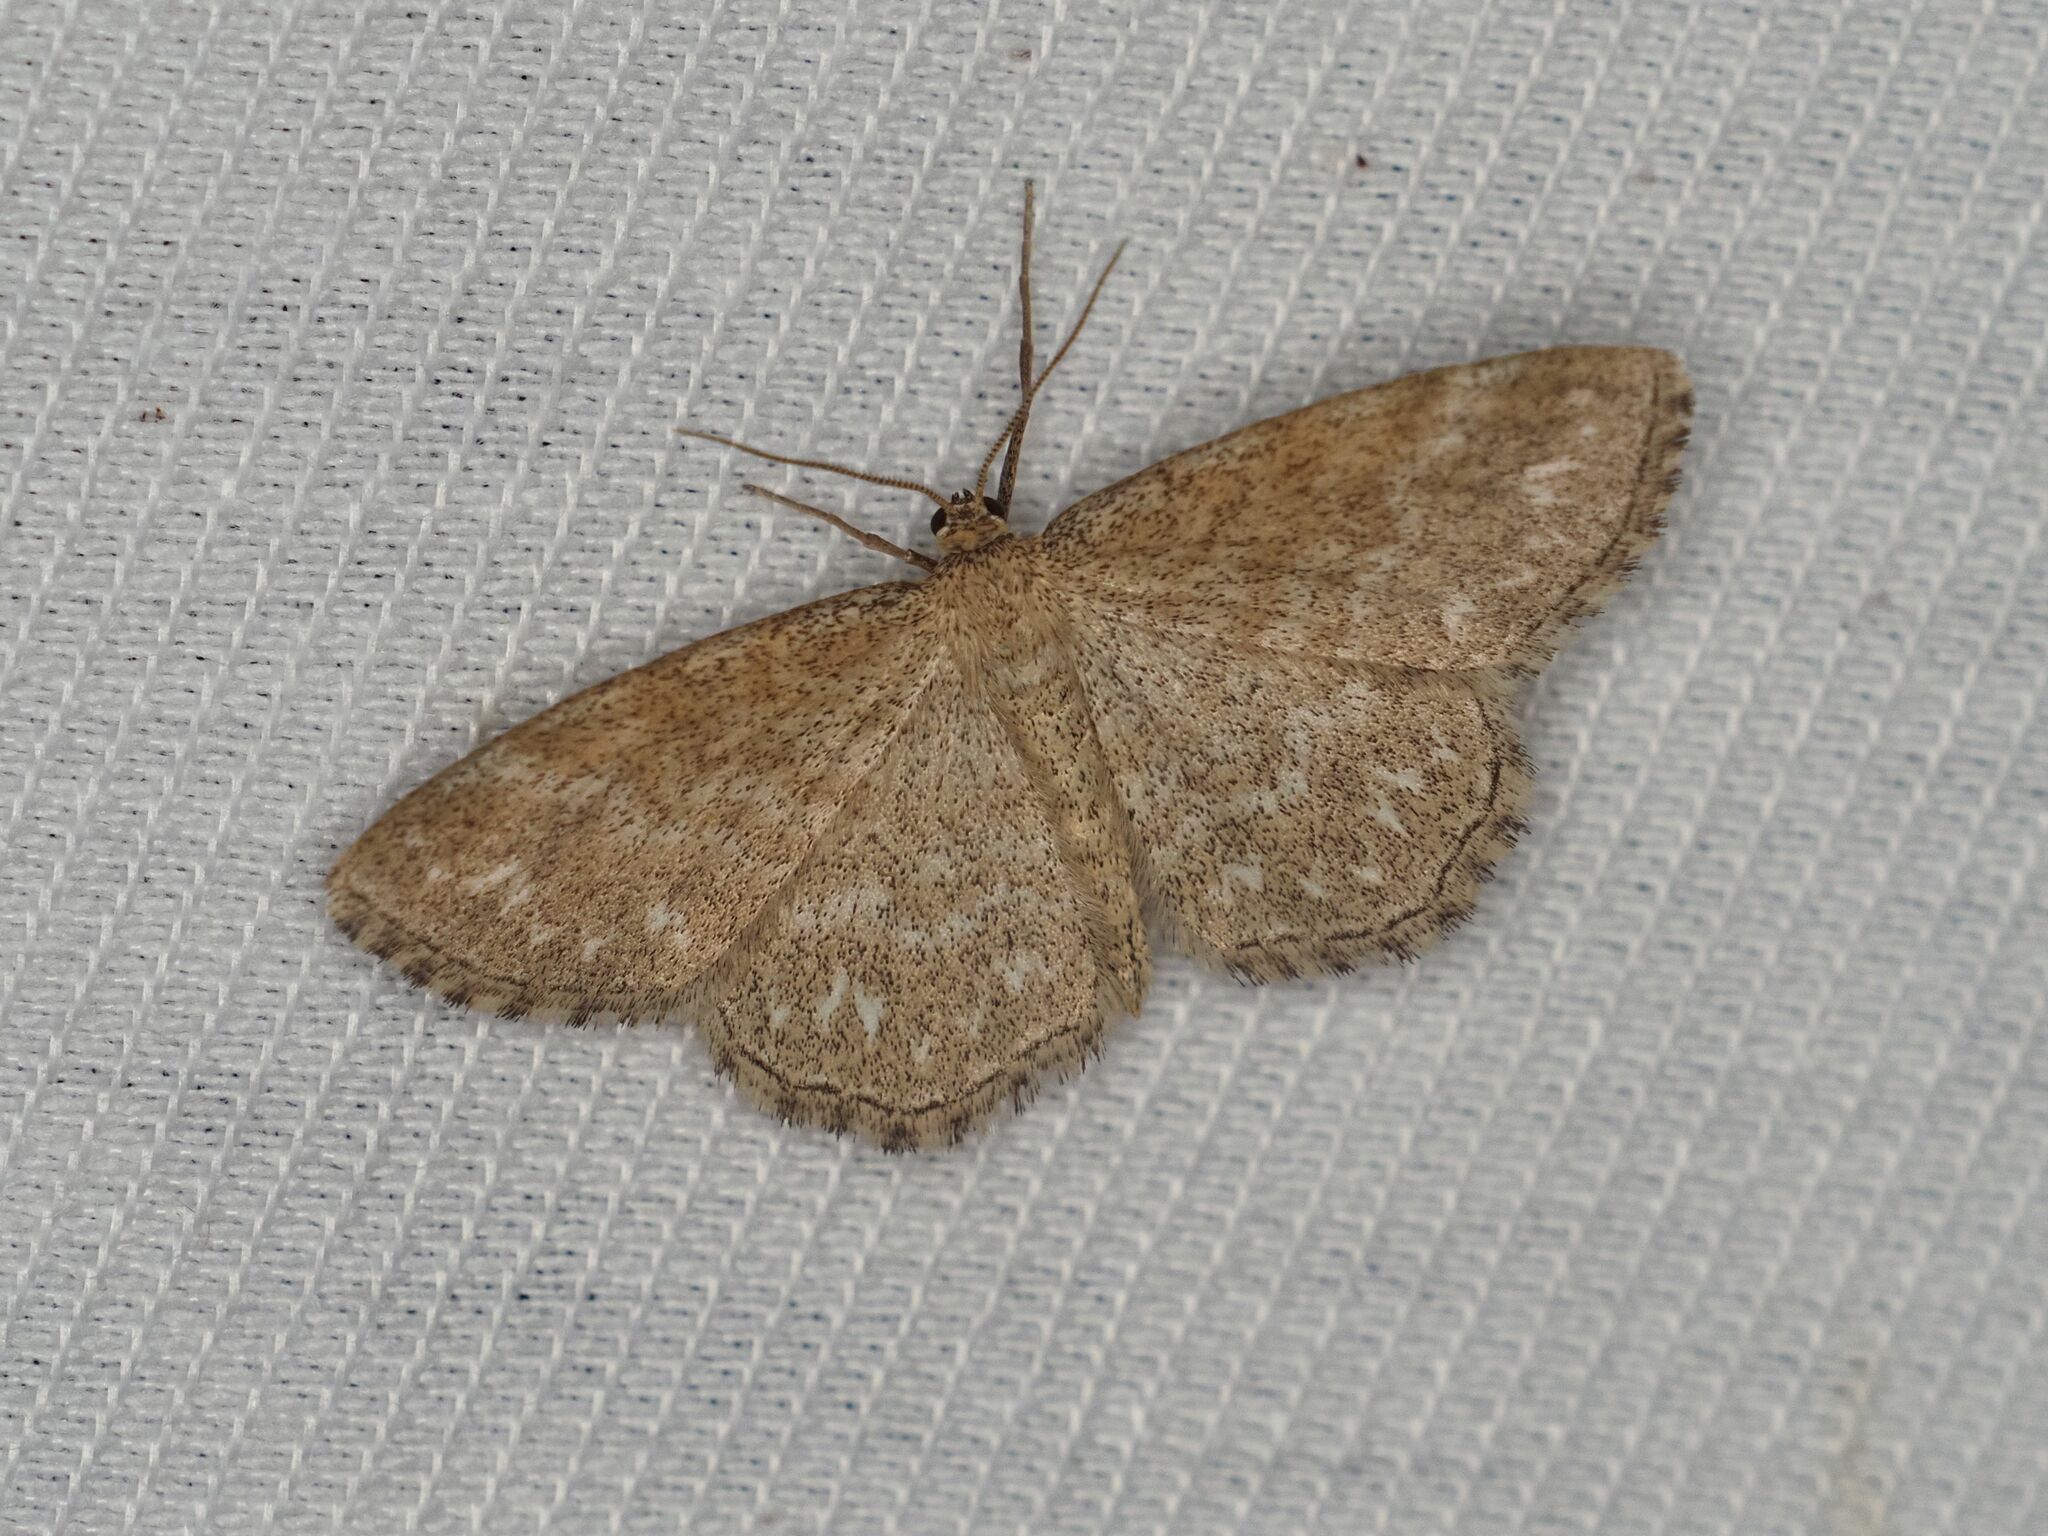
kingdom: Animalia
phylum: Arthropoda
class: Insecta
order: Lepidoptera
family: Geometridae
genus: Scopula
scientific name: Scopula immorata
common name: Lewes wave
